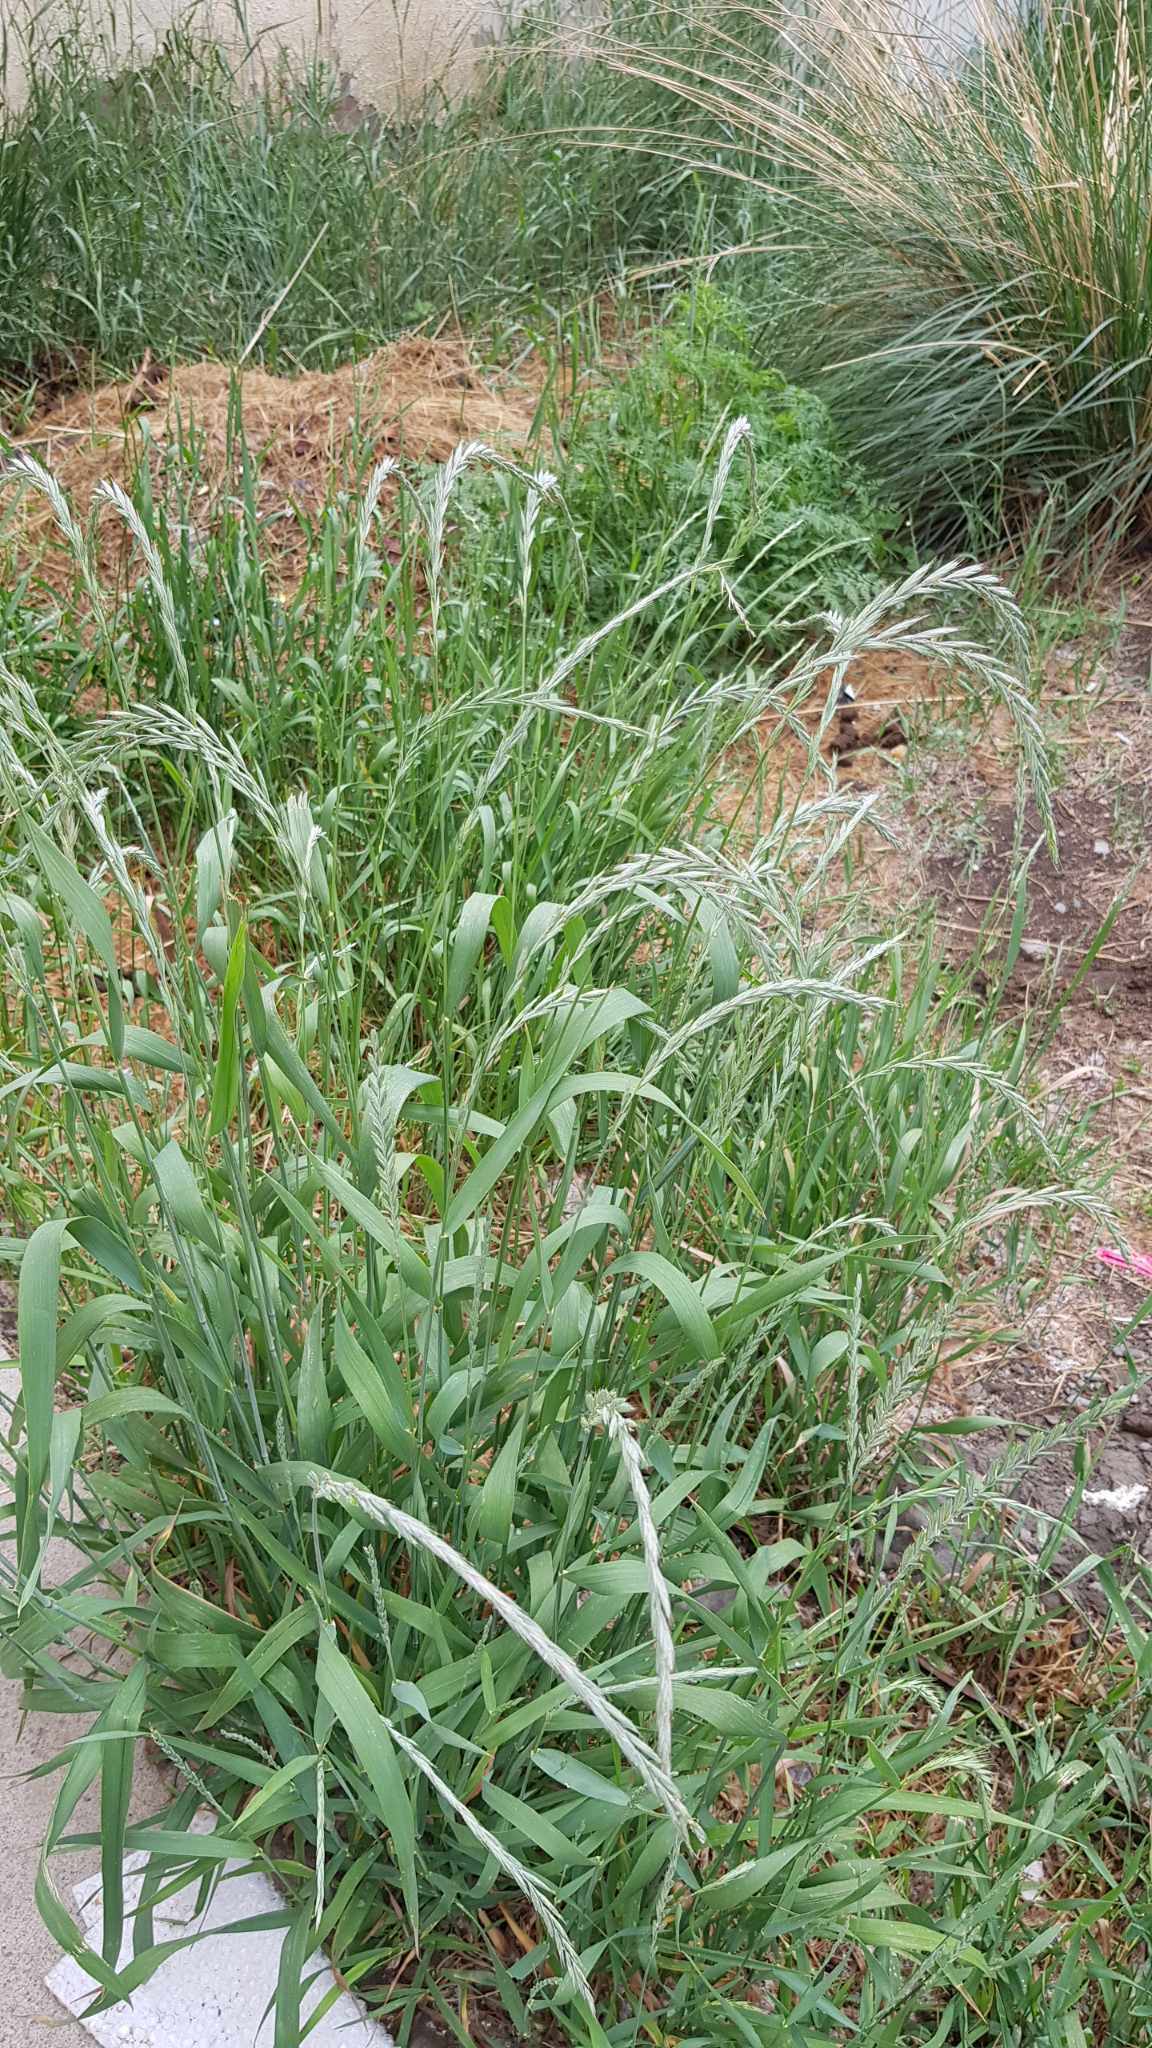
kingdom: Plantae
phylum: Tracheophyta
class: Liliopsida
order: Poales
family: Poaceae
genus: Elymus
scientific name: Elymus sibiricus
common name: Siberian wildrye
